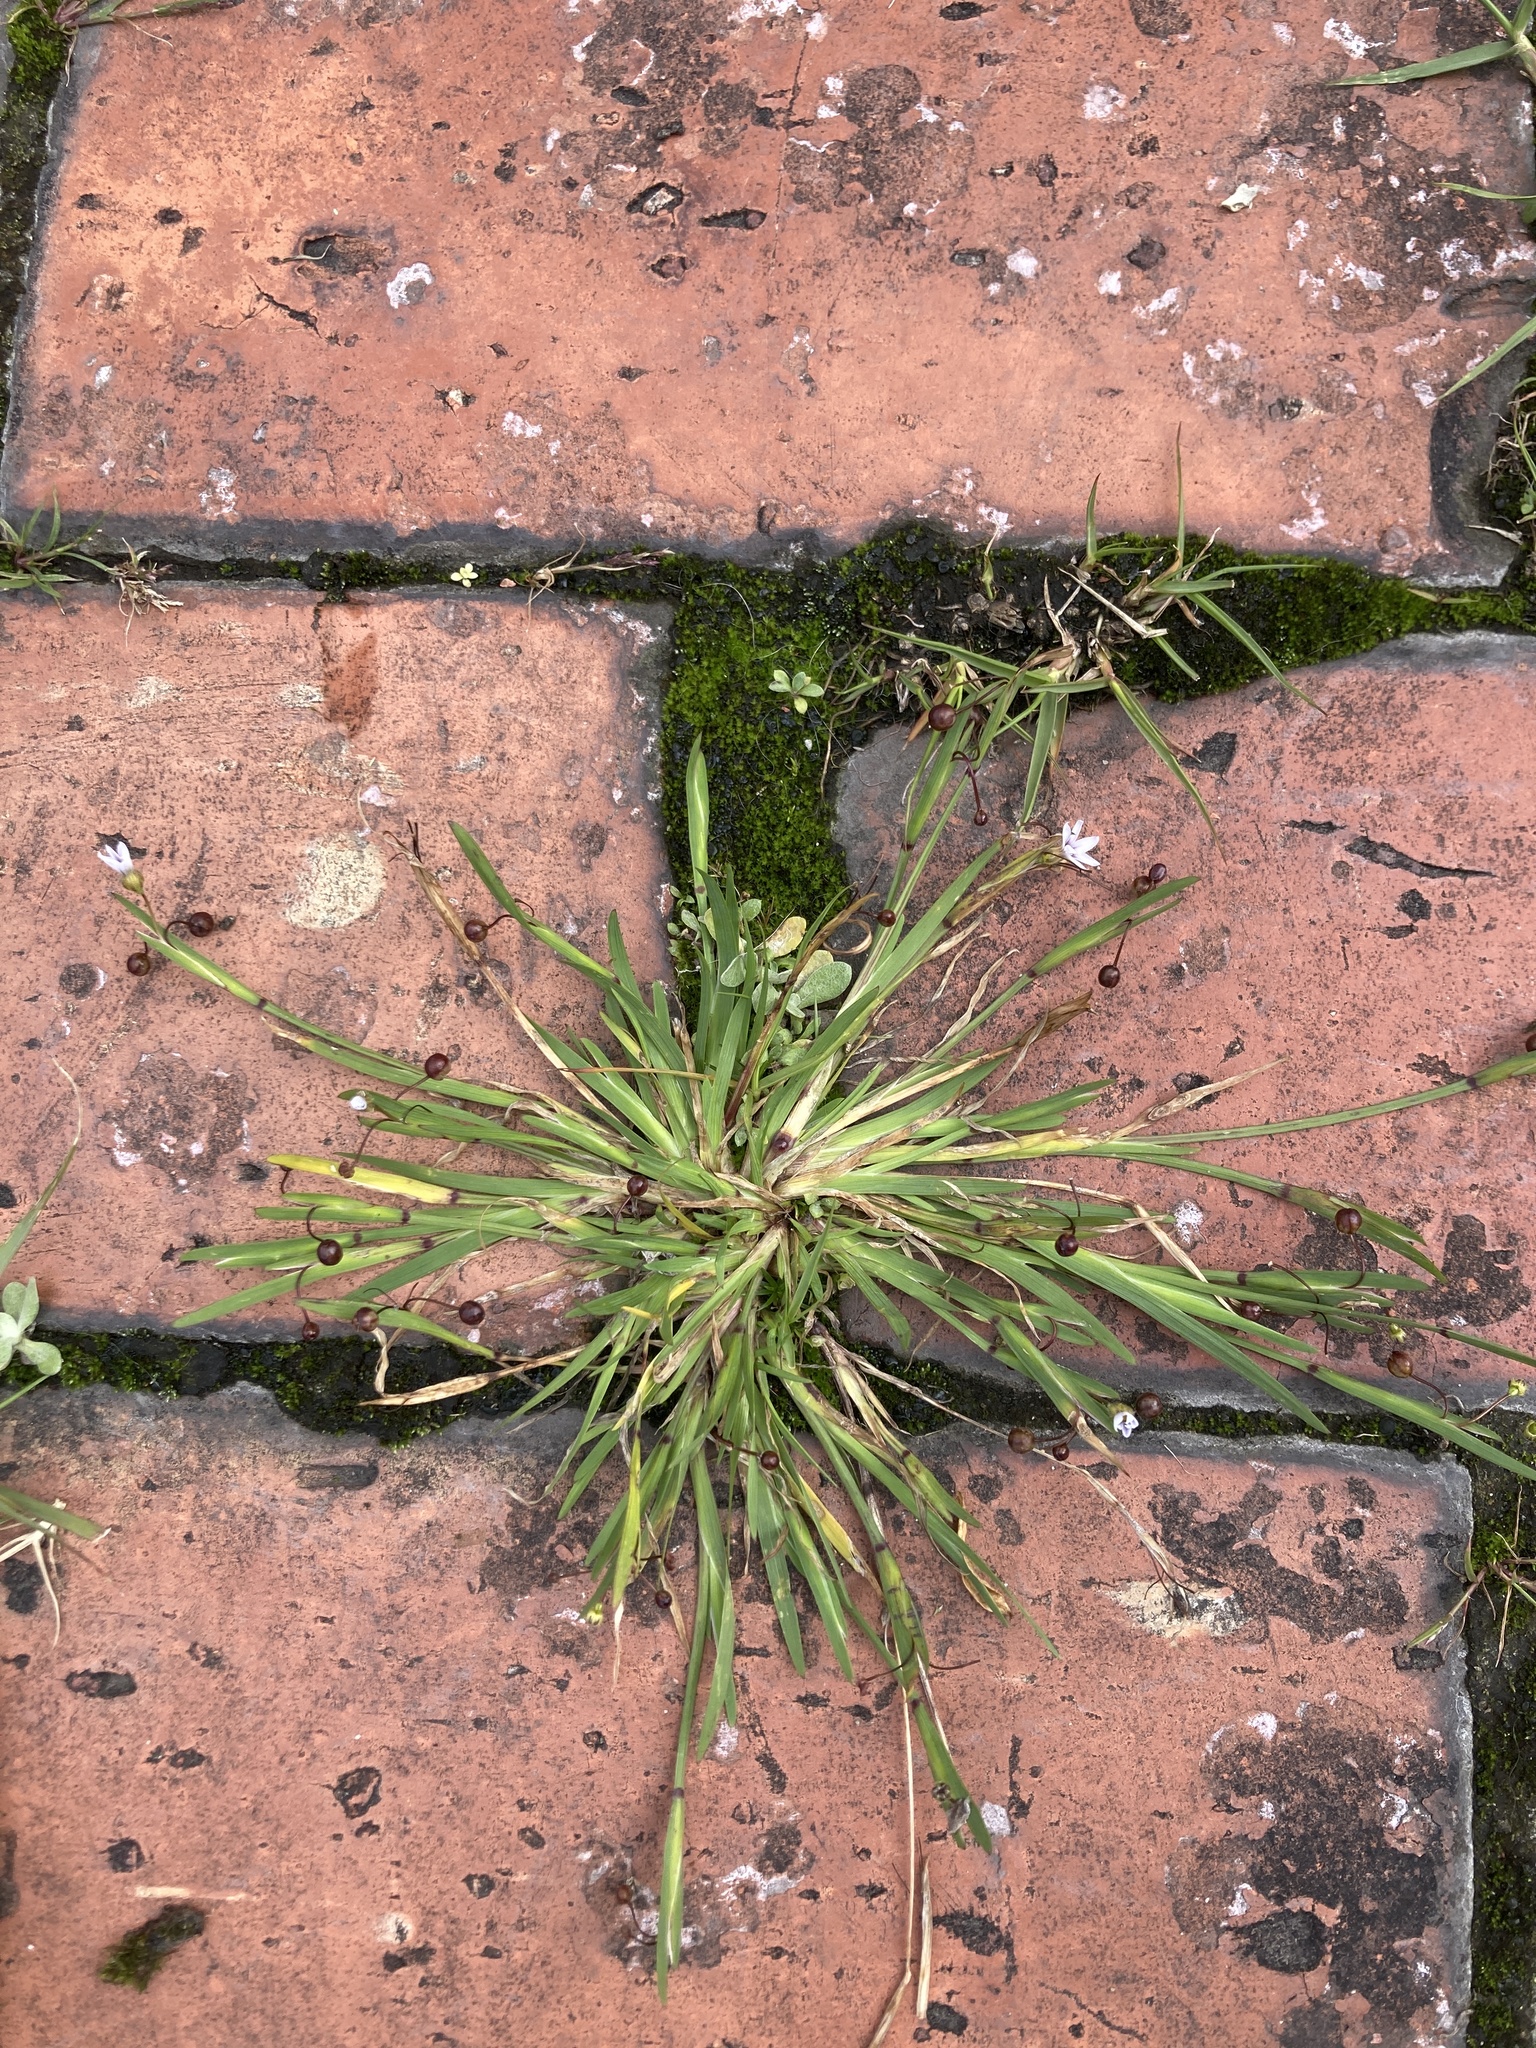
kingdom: Plantae
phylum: Tracheophyta
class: Liliopsida
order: Asparagales
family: Iridaceae
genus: Sisyrinchium
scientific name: Sisyrinchium micranthum
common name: Bermuda pigroot
